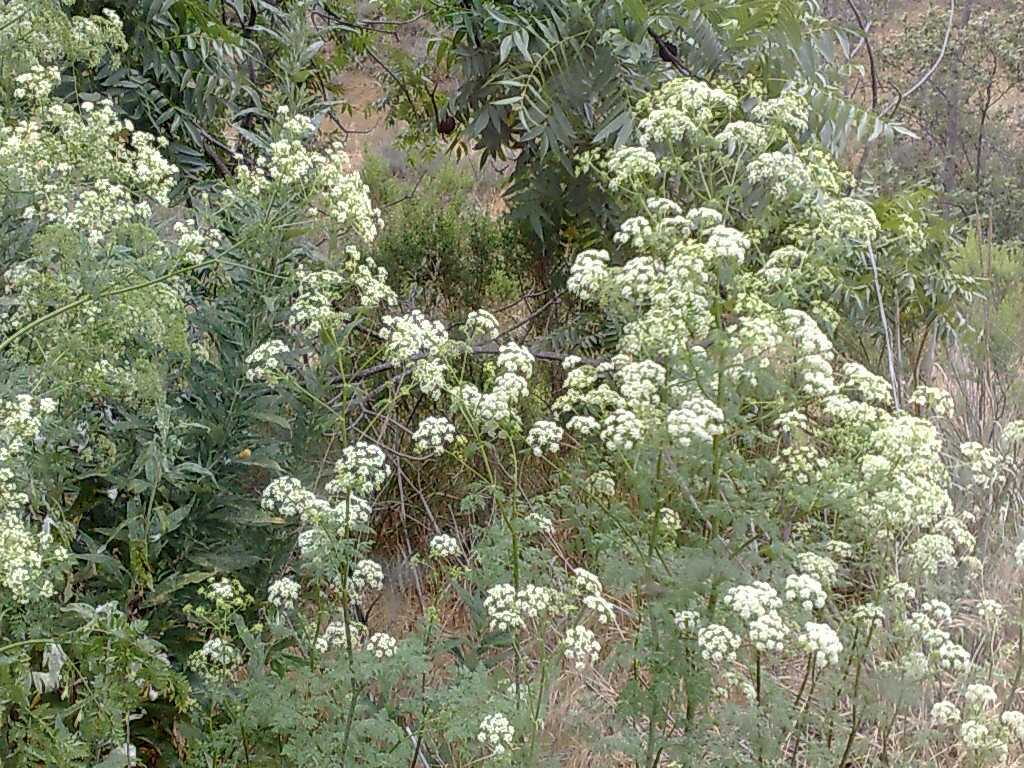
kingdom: Plantae
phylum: Tracheophyta
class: Magnoliopsida
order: Fagales
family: Juglandaceae
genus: Juglans
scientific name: Juglans californica
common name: Southern california black walnut
